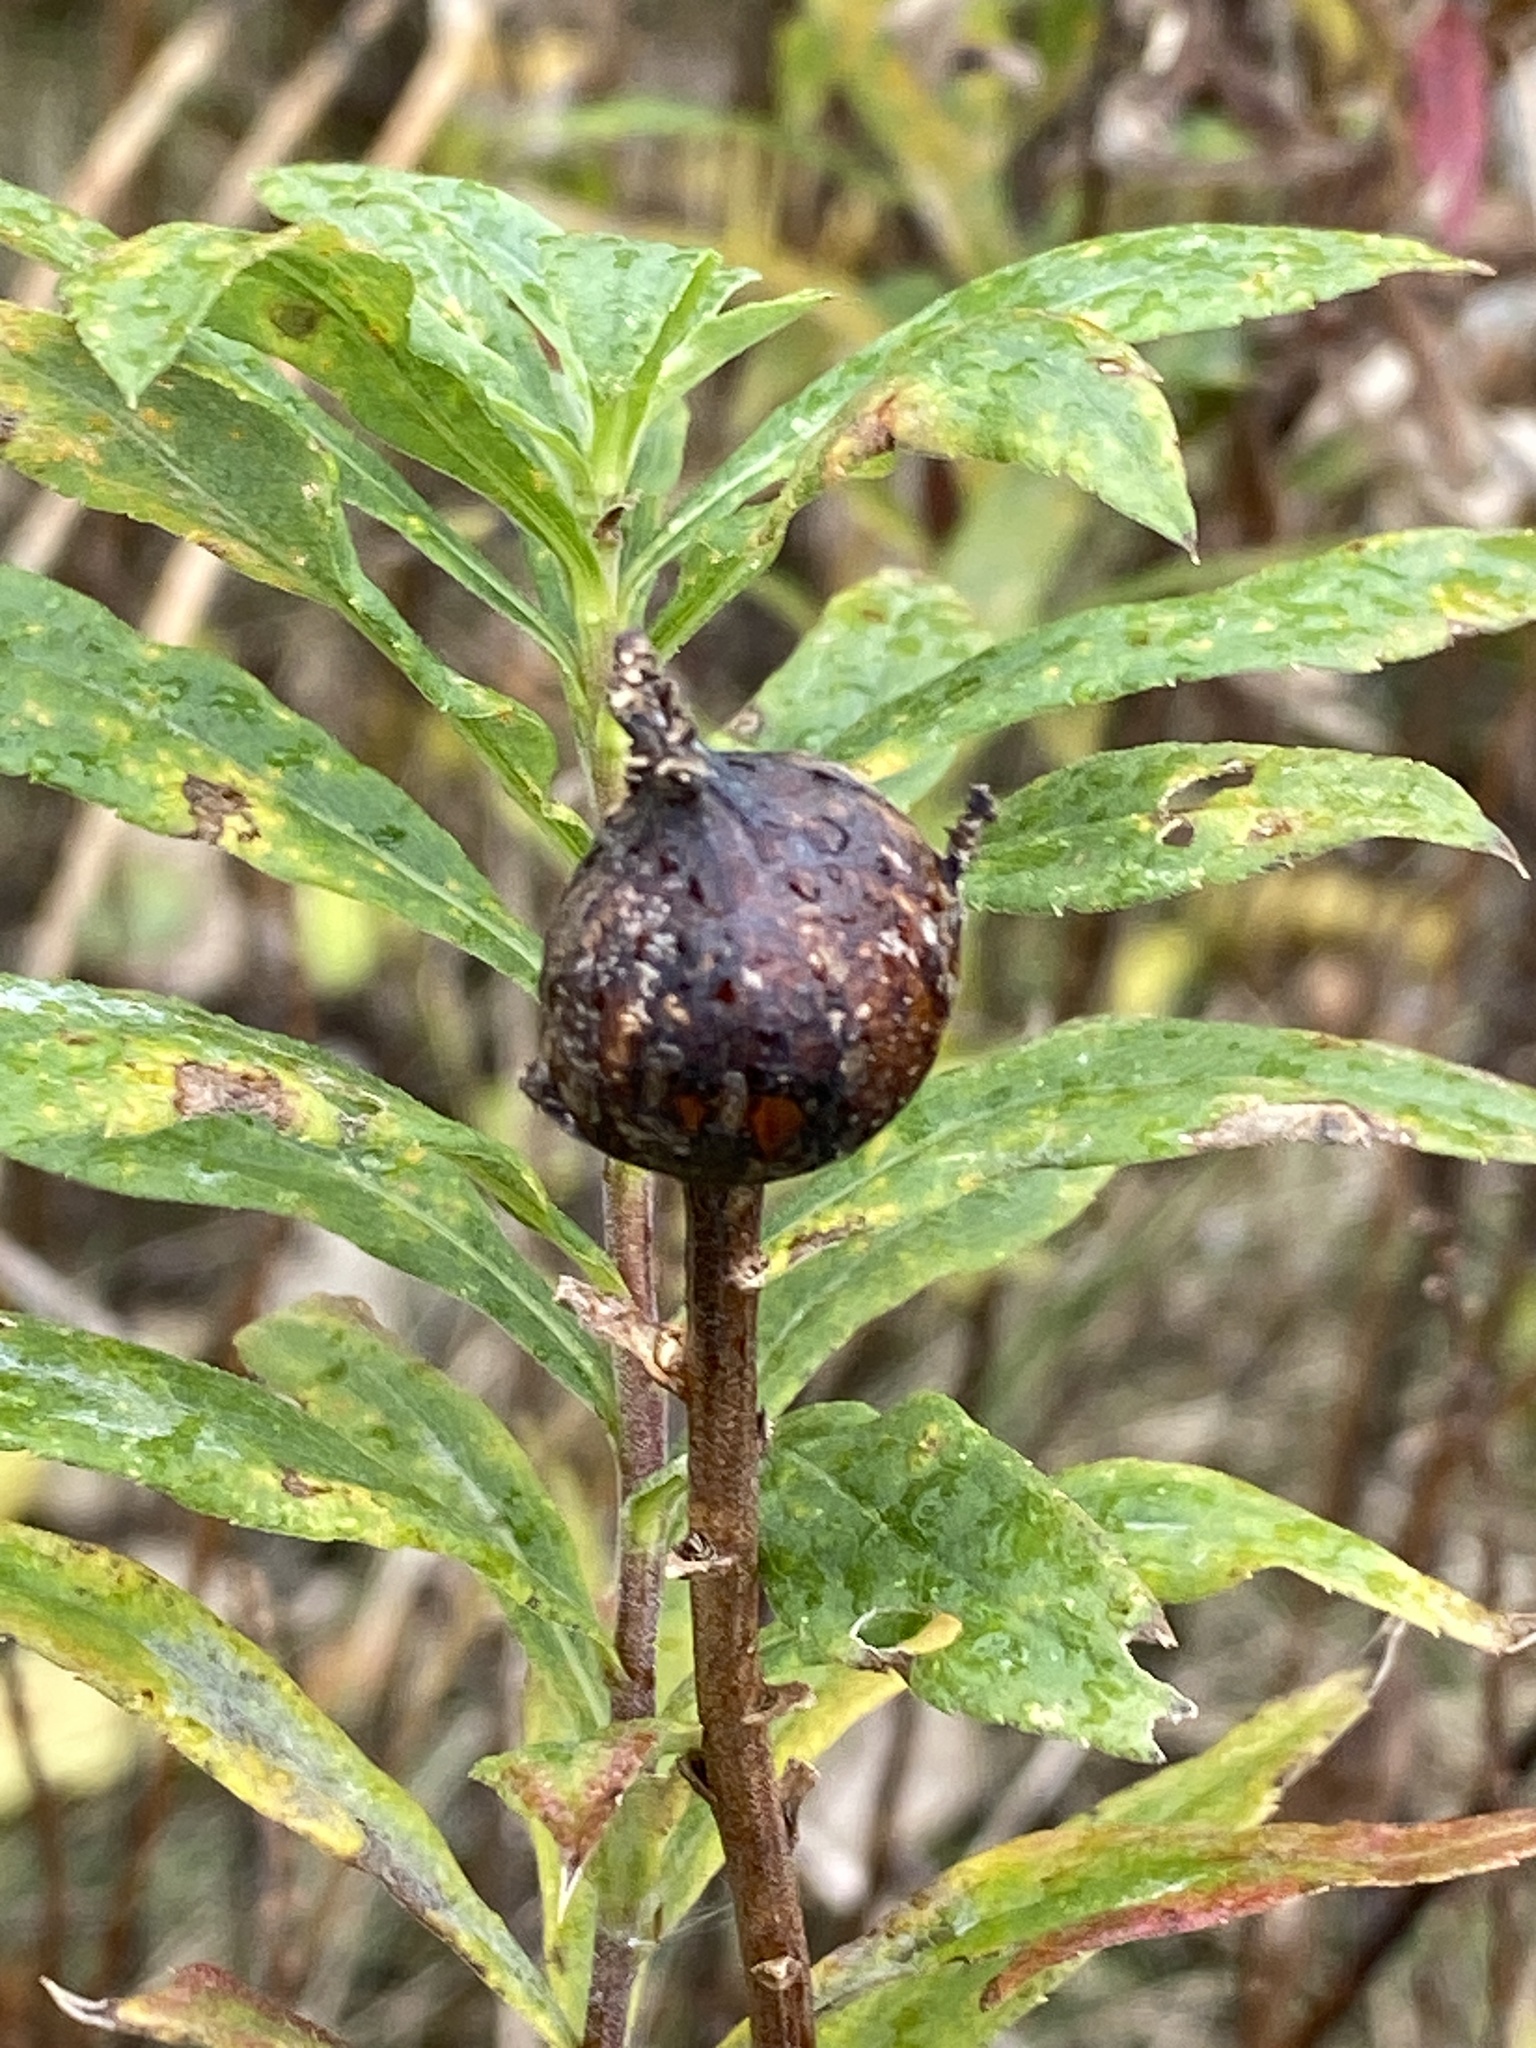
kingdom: Animalia
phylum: Arthropoda
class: Insecta
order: Diptera
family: Tephritidae
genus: Eurosta
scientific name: Eurosta solidaginis
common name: Goldenrod gall fly
